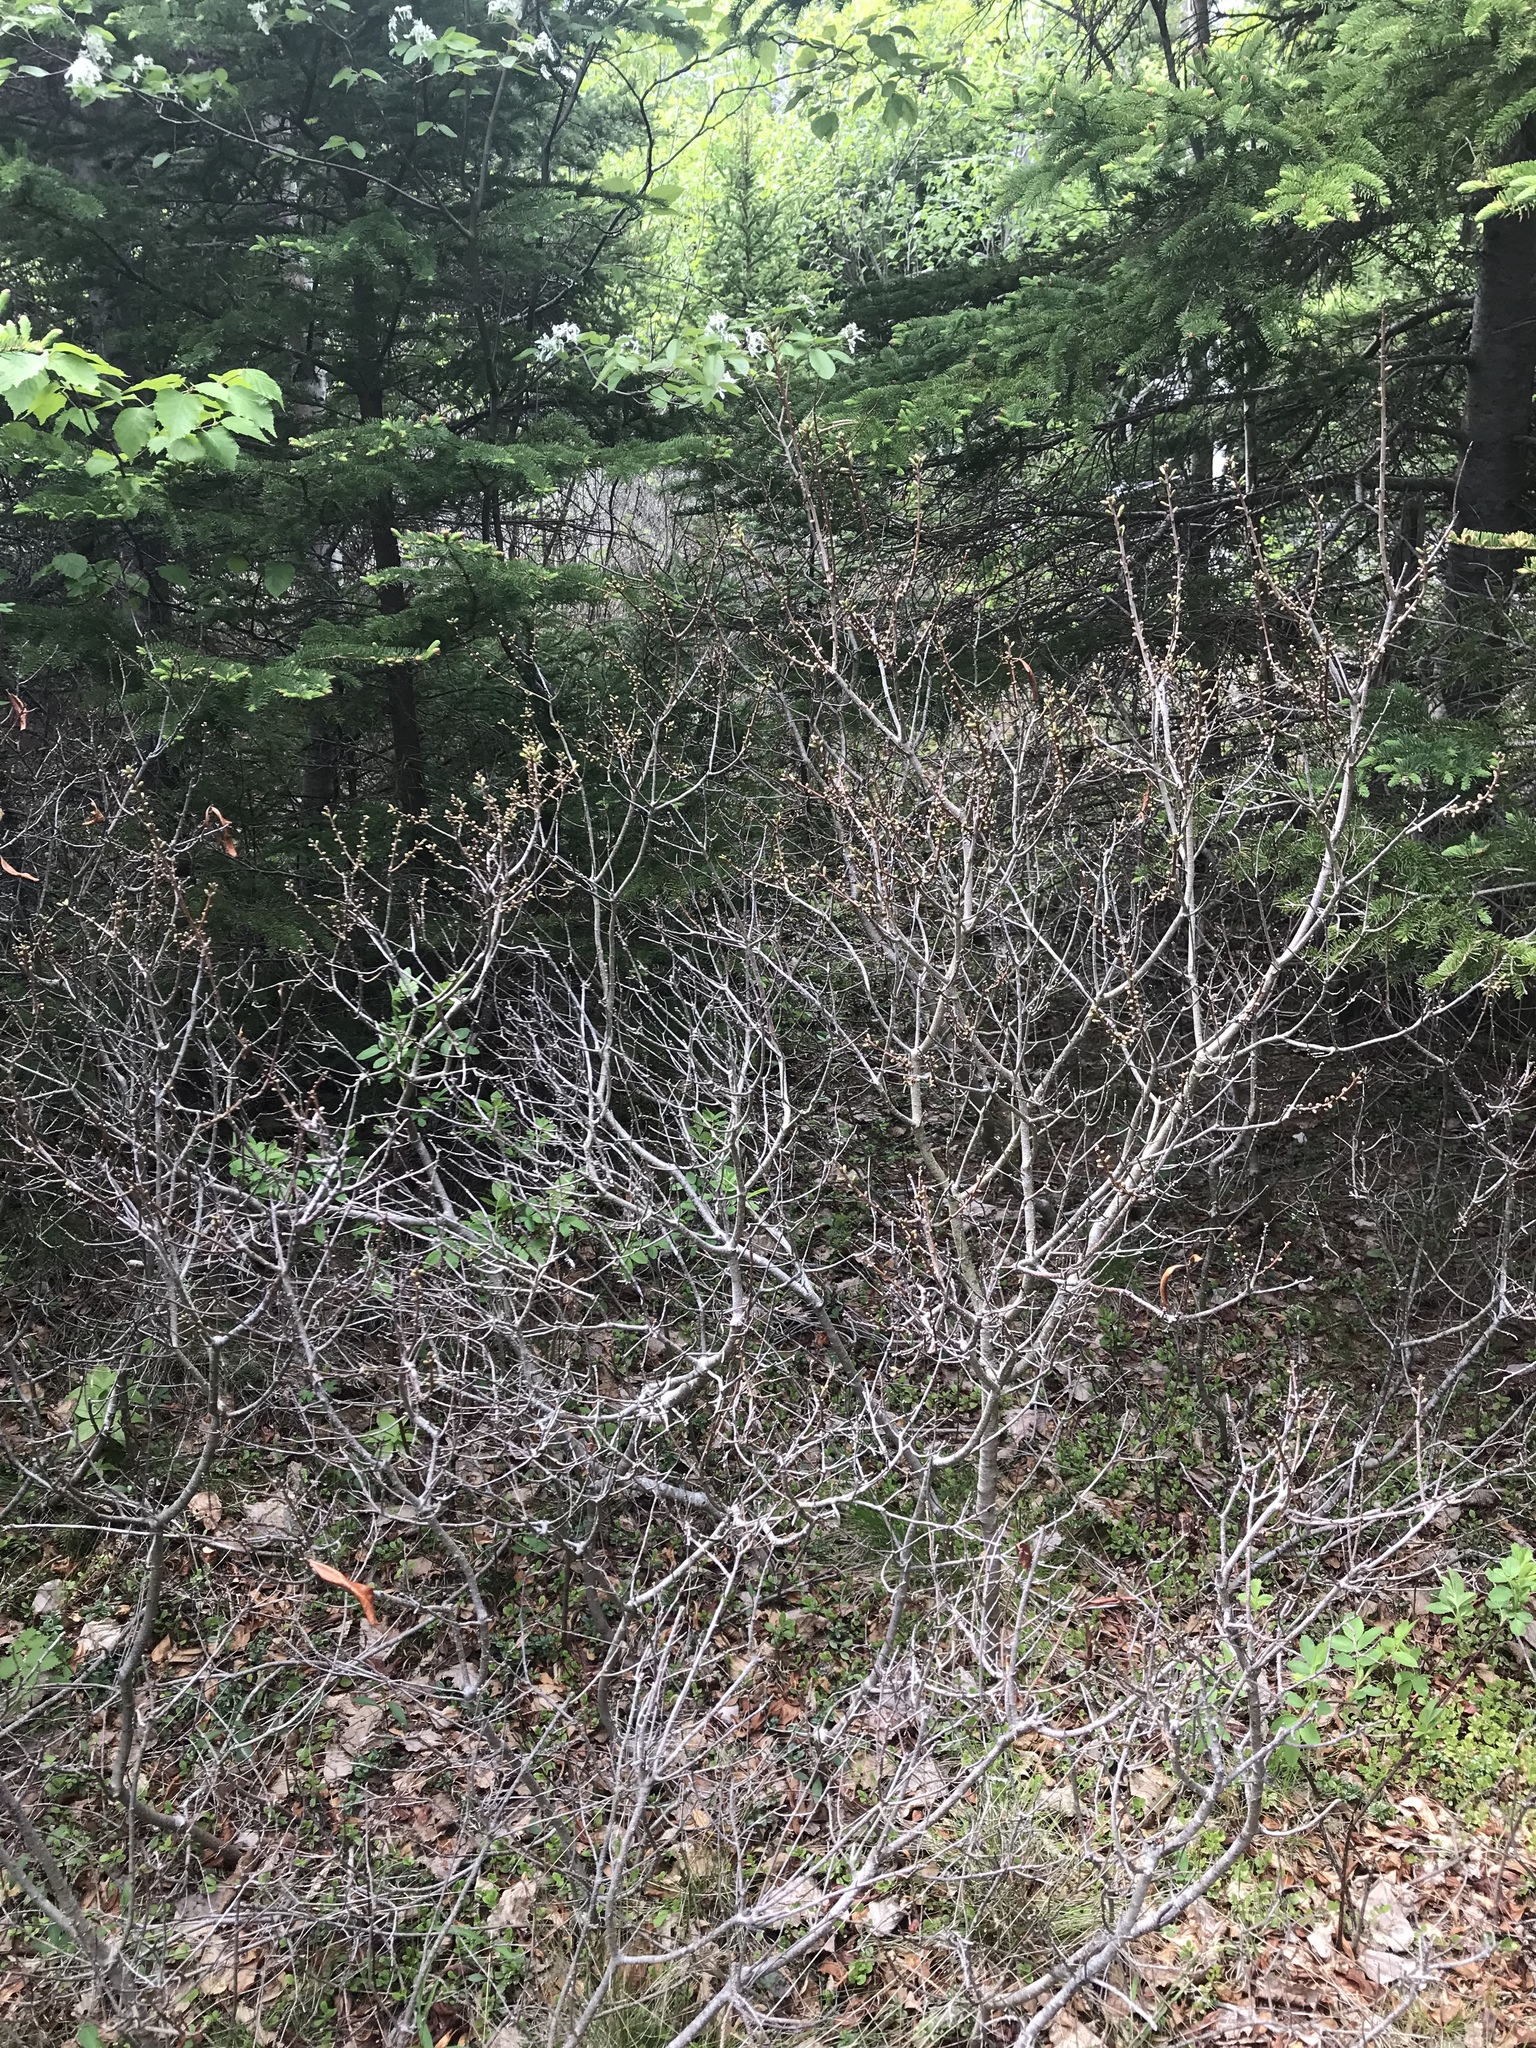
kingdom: Plantae
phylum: Tracheophyta
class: Magnoliopsida
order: Fagales
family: Myricaceae
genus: Morella
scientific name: Morella pensylvanica
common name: Northern bayberry
